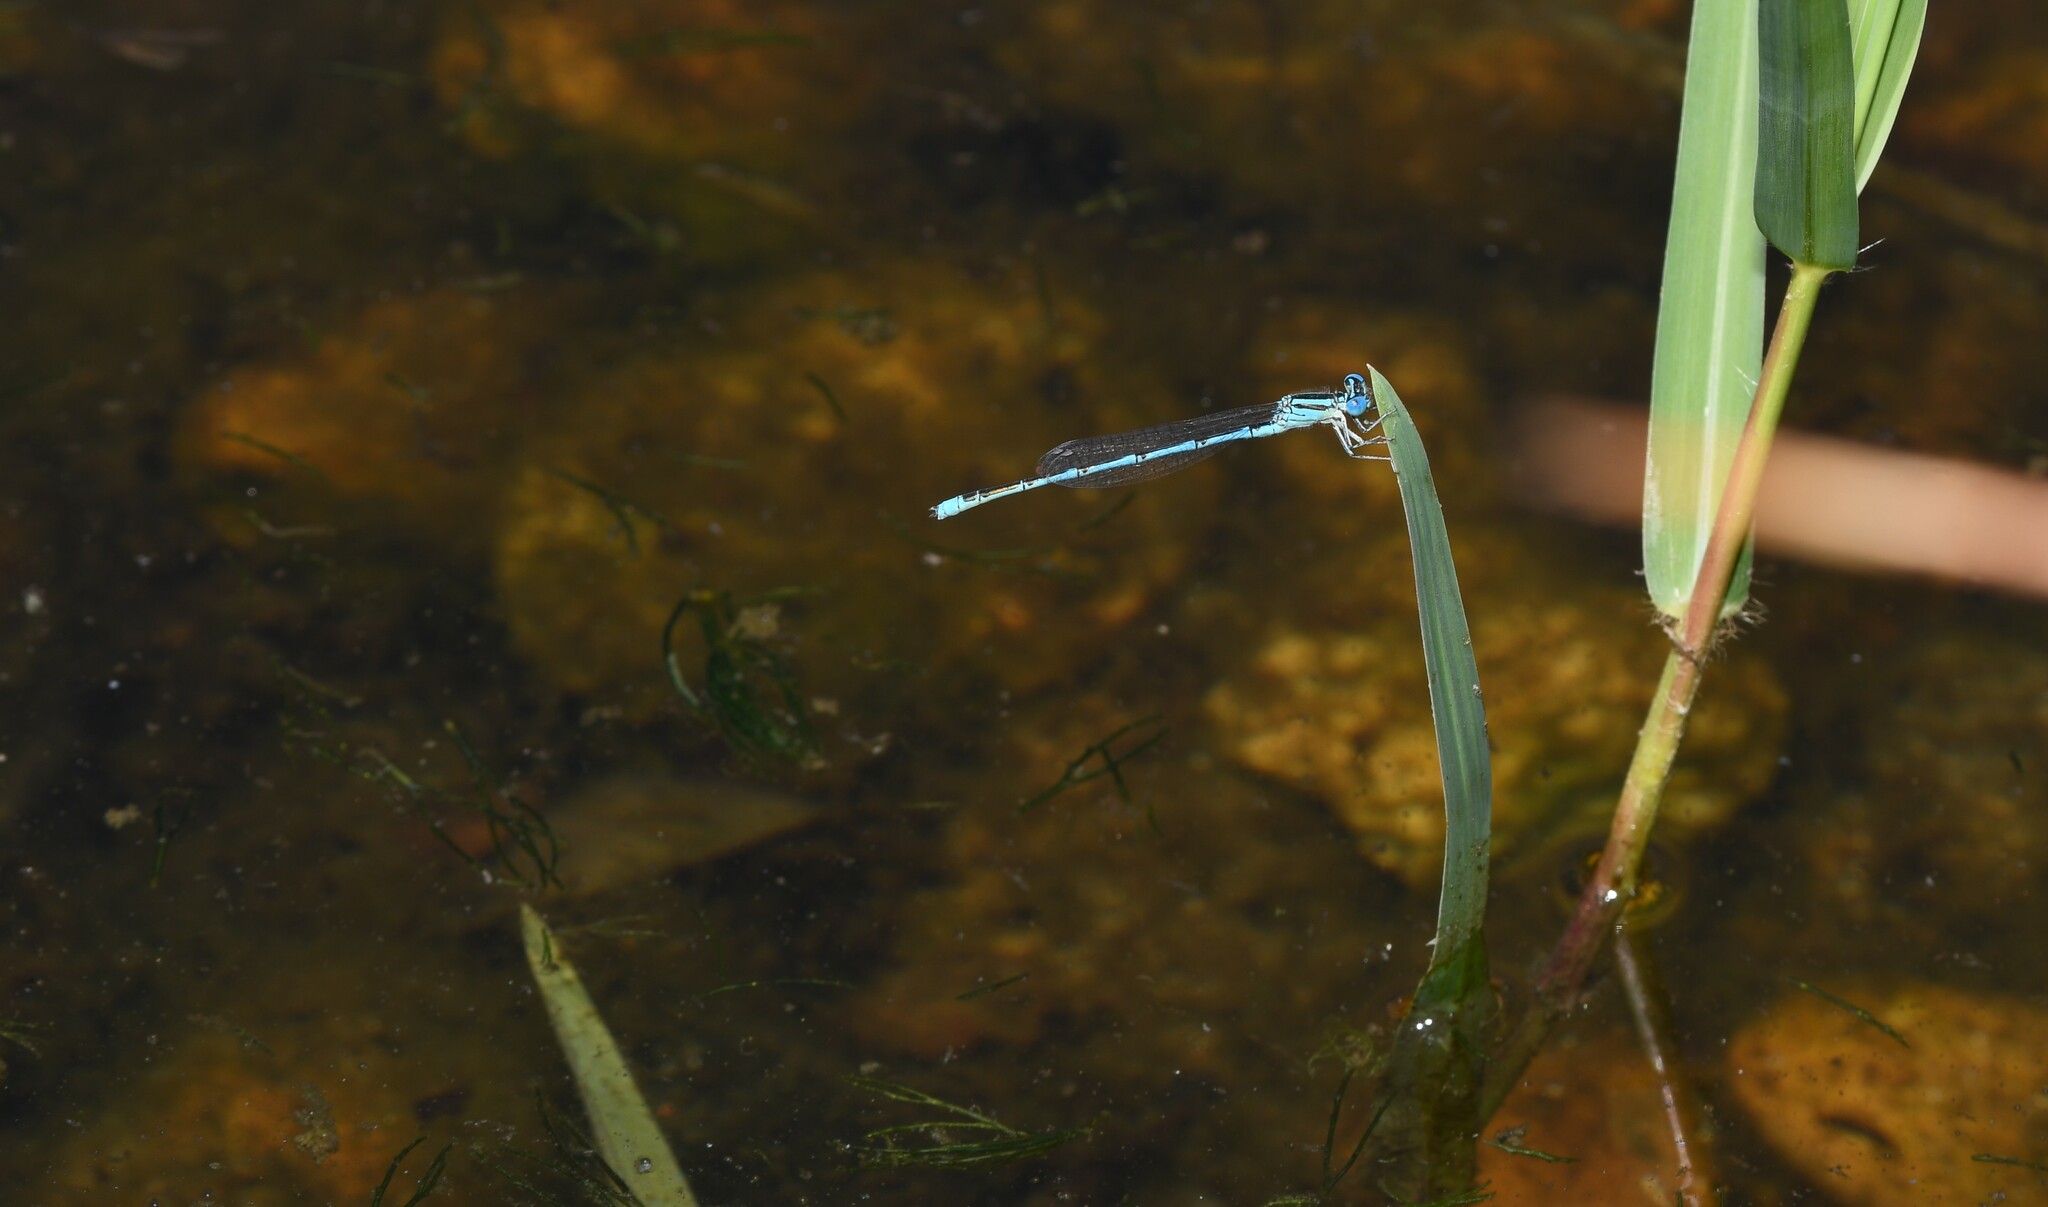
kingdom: Animalia
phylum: Arthropoda
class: Insecta
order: Odonata
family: Coenagrionidae
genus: Erythromma
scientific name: Erythromma lindenii
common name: Blue-eye
